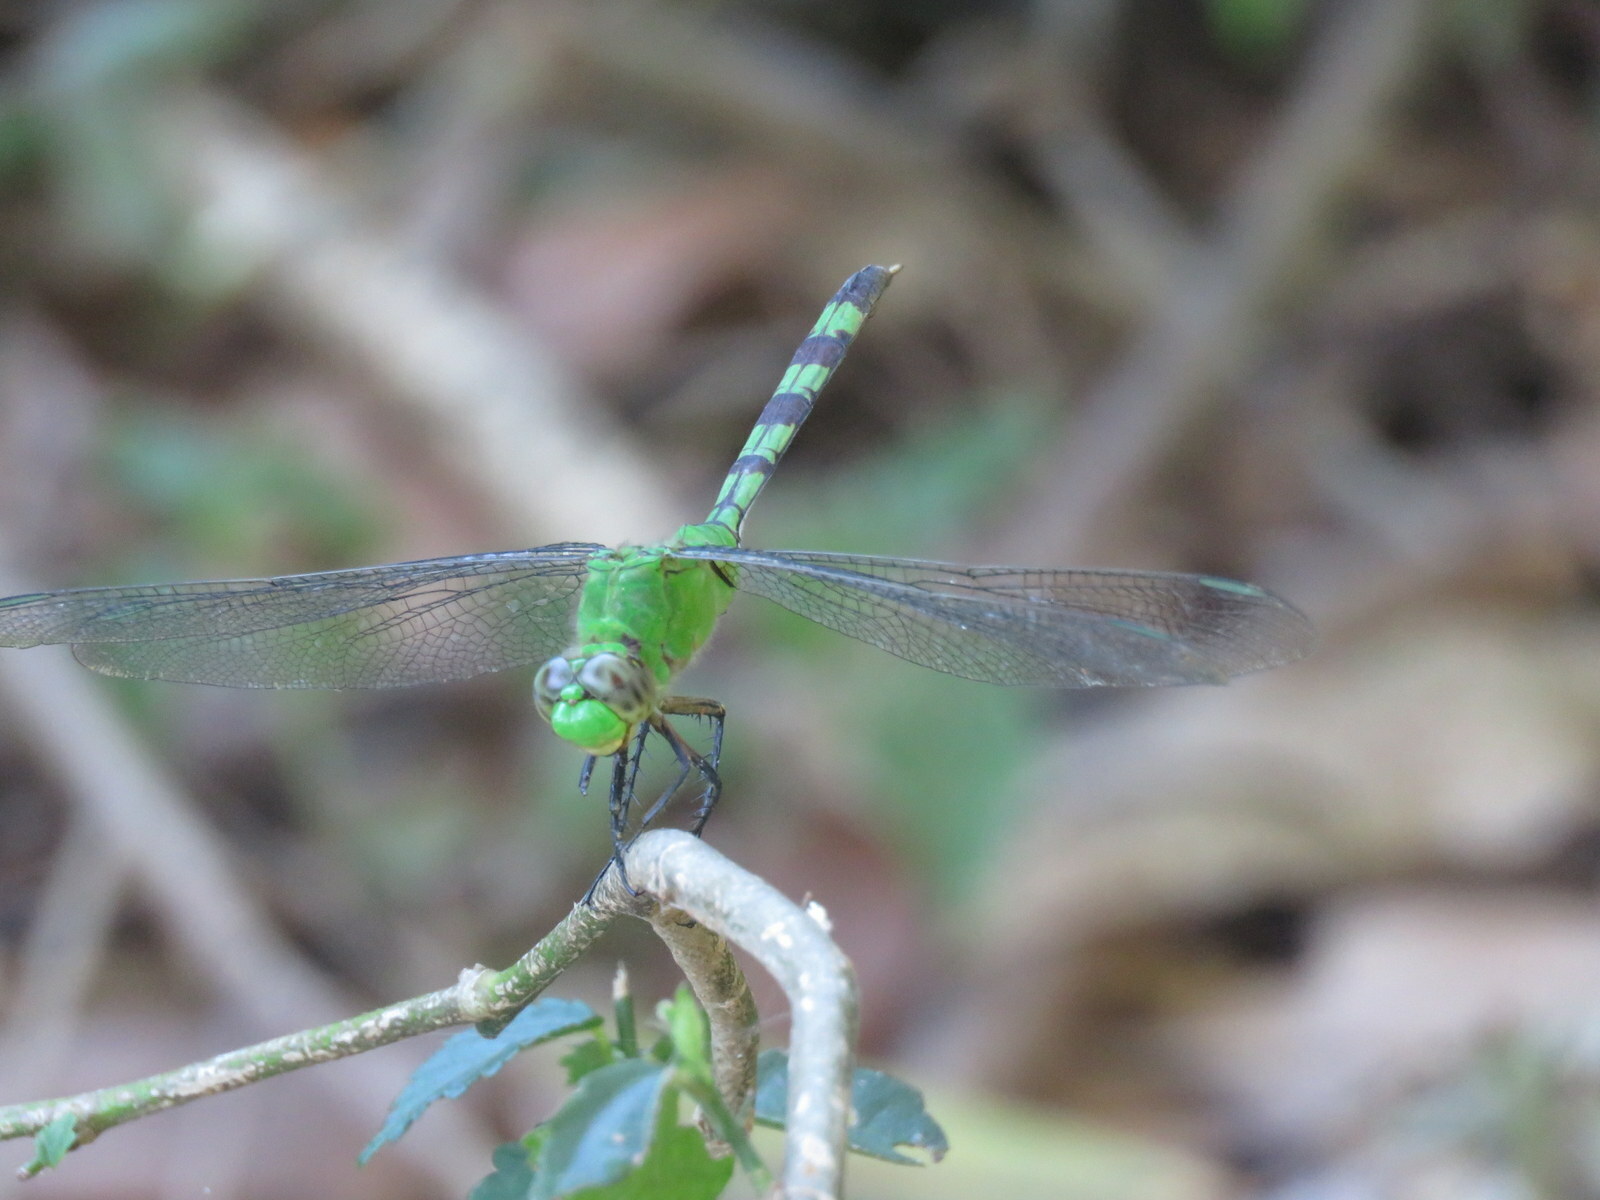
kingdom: Animalia
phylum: Arthropoda
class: Insecta
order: Odonata
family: Libellulidae
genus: Erythemis
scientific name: Erythemis vesiculosa
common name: Great pondhawk
